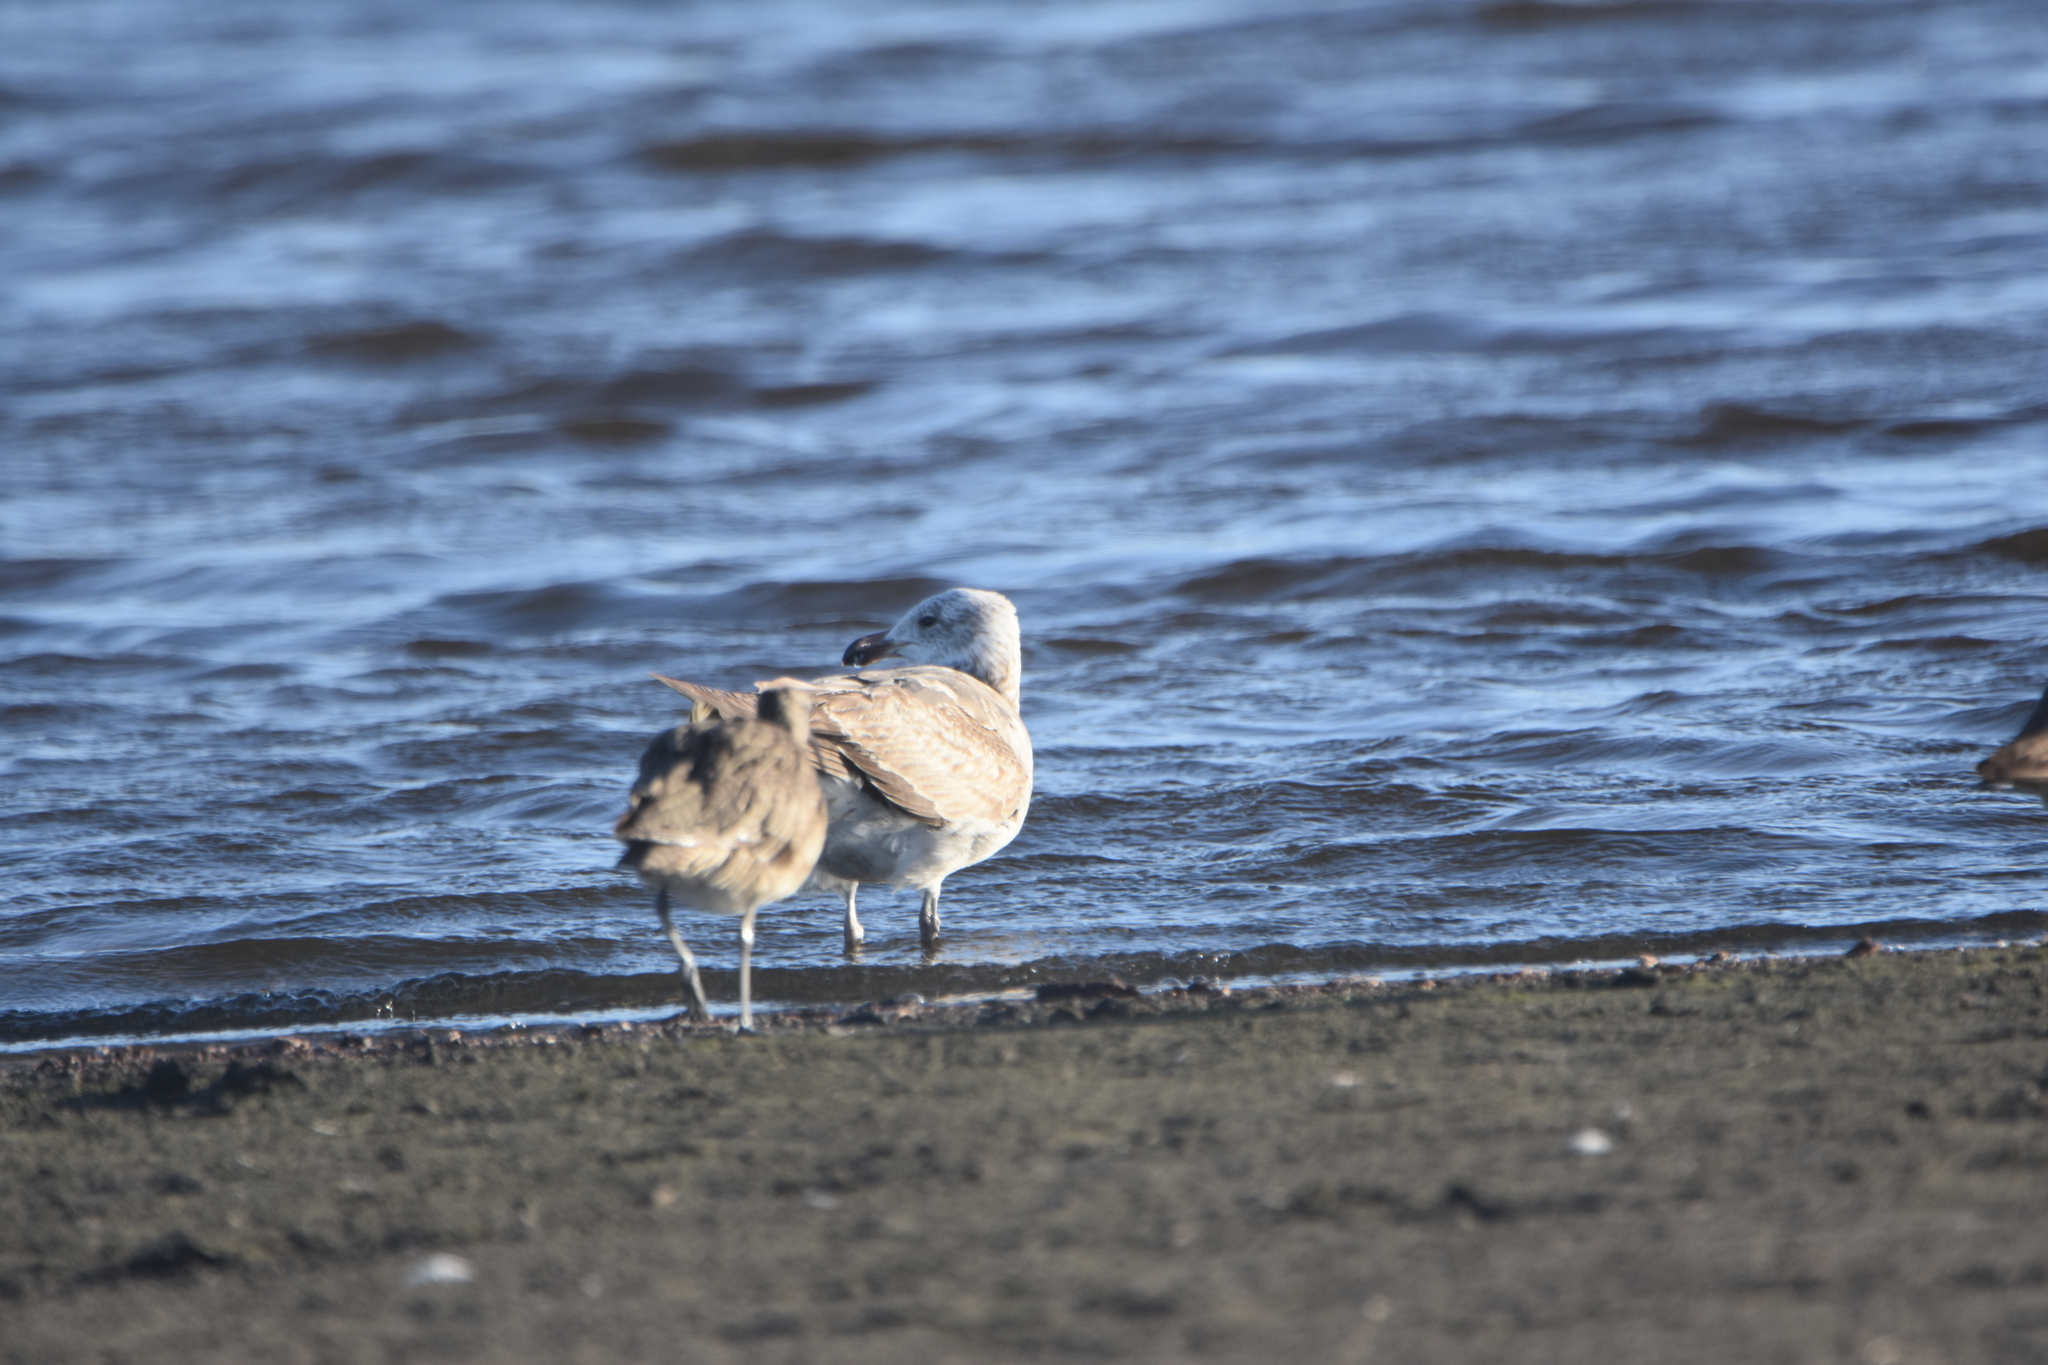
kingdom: Animalia
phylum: Chordata
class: Aves
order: Charadriiformes
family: Laridae
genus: Larus
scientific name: Larus dominicanus
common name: Kelp gull
